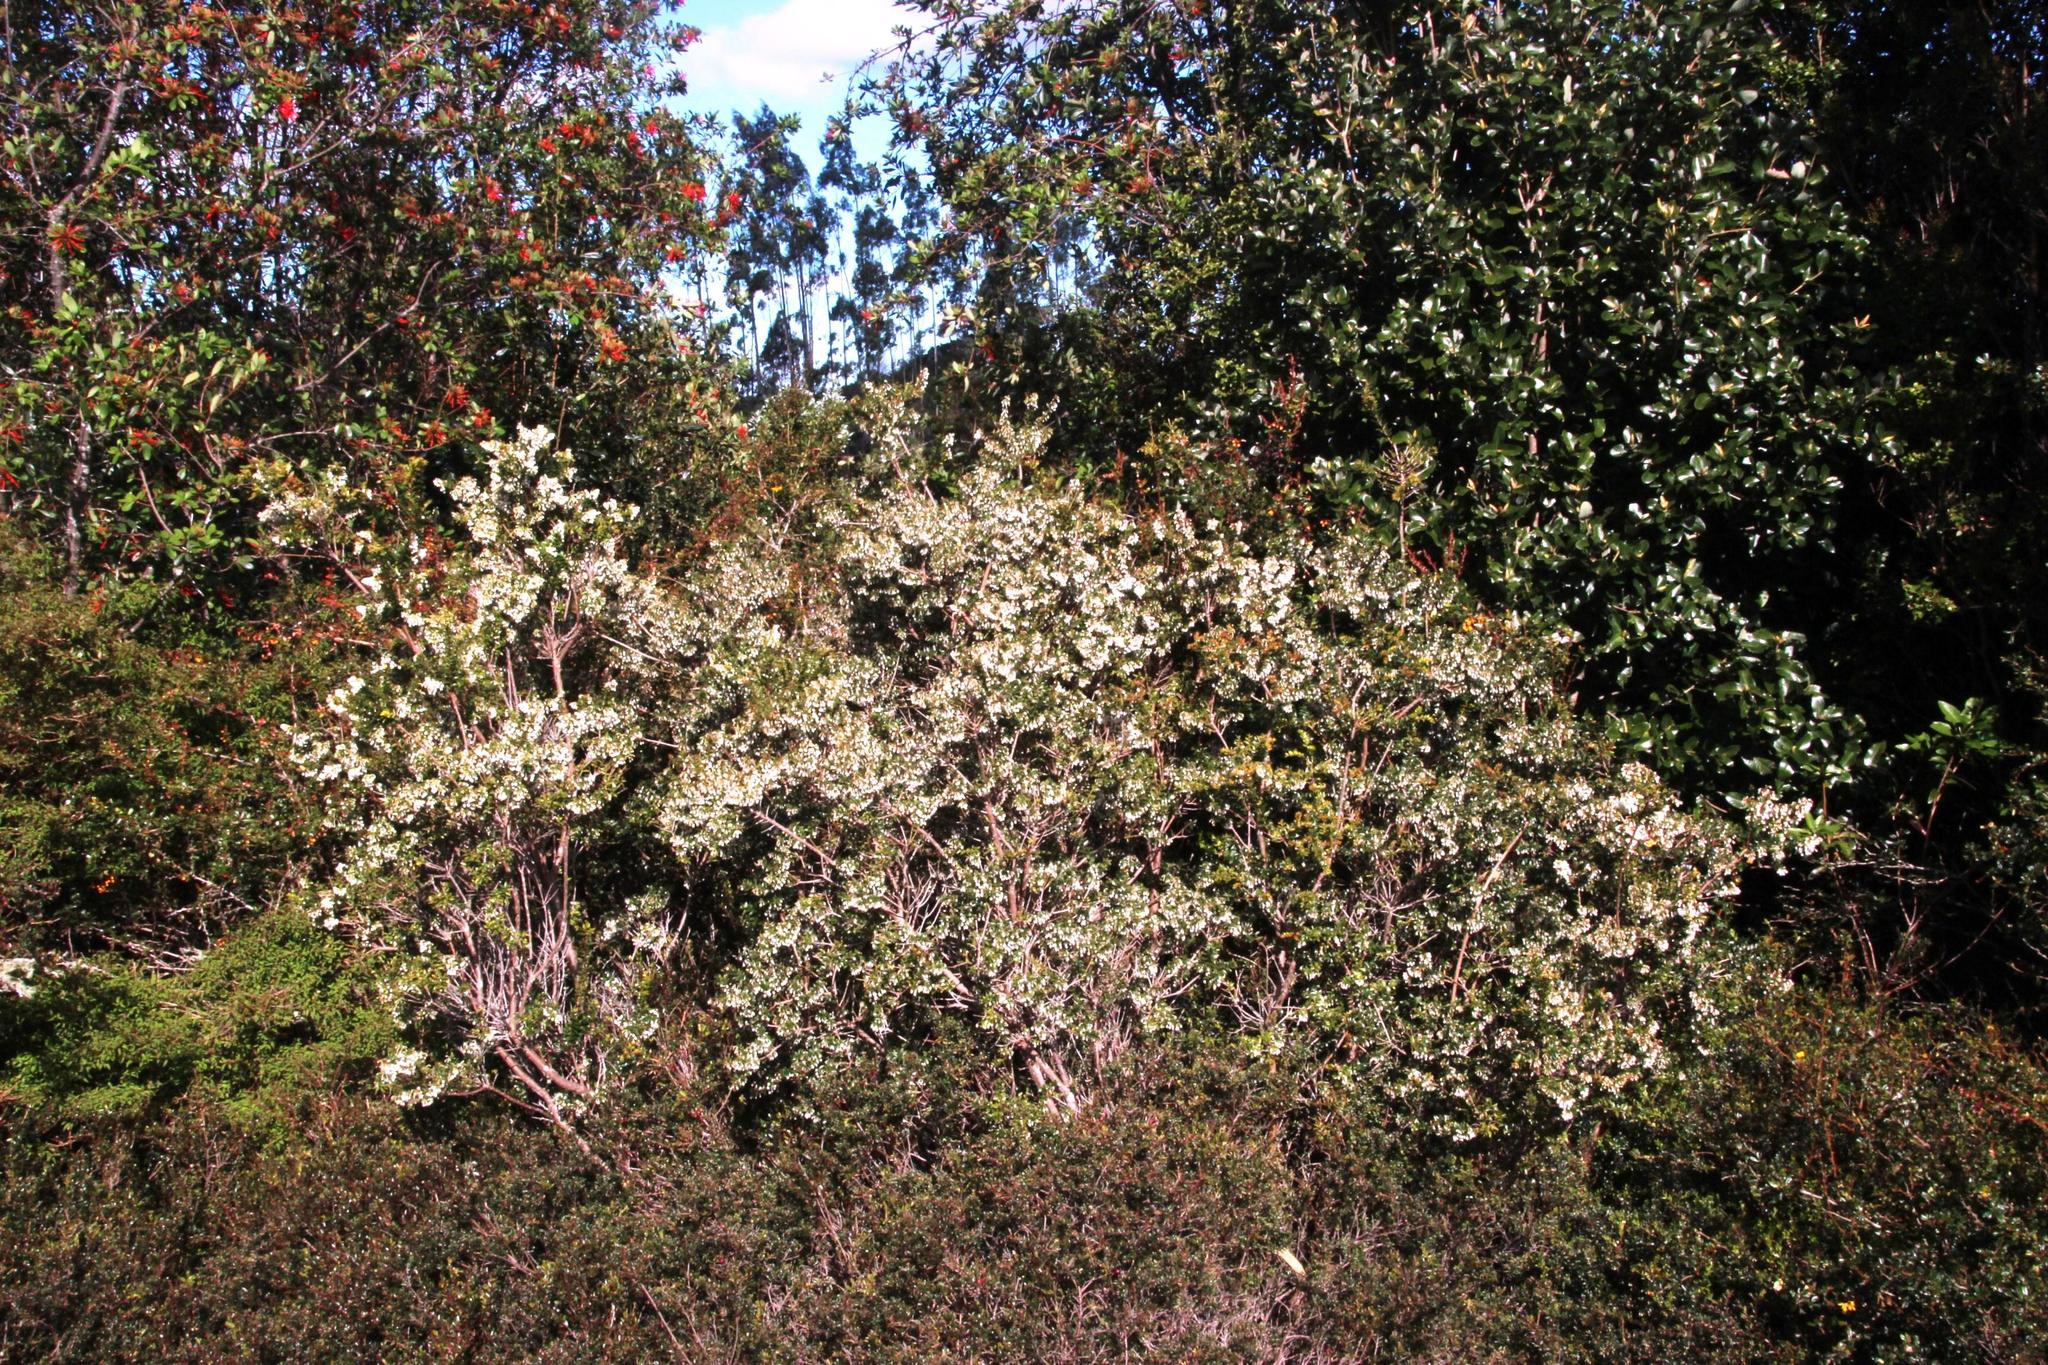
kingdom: Plantae
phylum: Tracheophyta
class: Magnoliopsida
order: Ericales
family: Ericaceae
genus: Gaultheria
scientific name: Gaultheria mucronata
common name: Prickly heath
